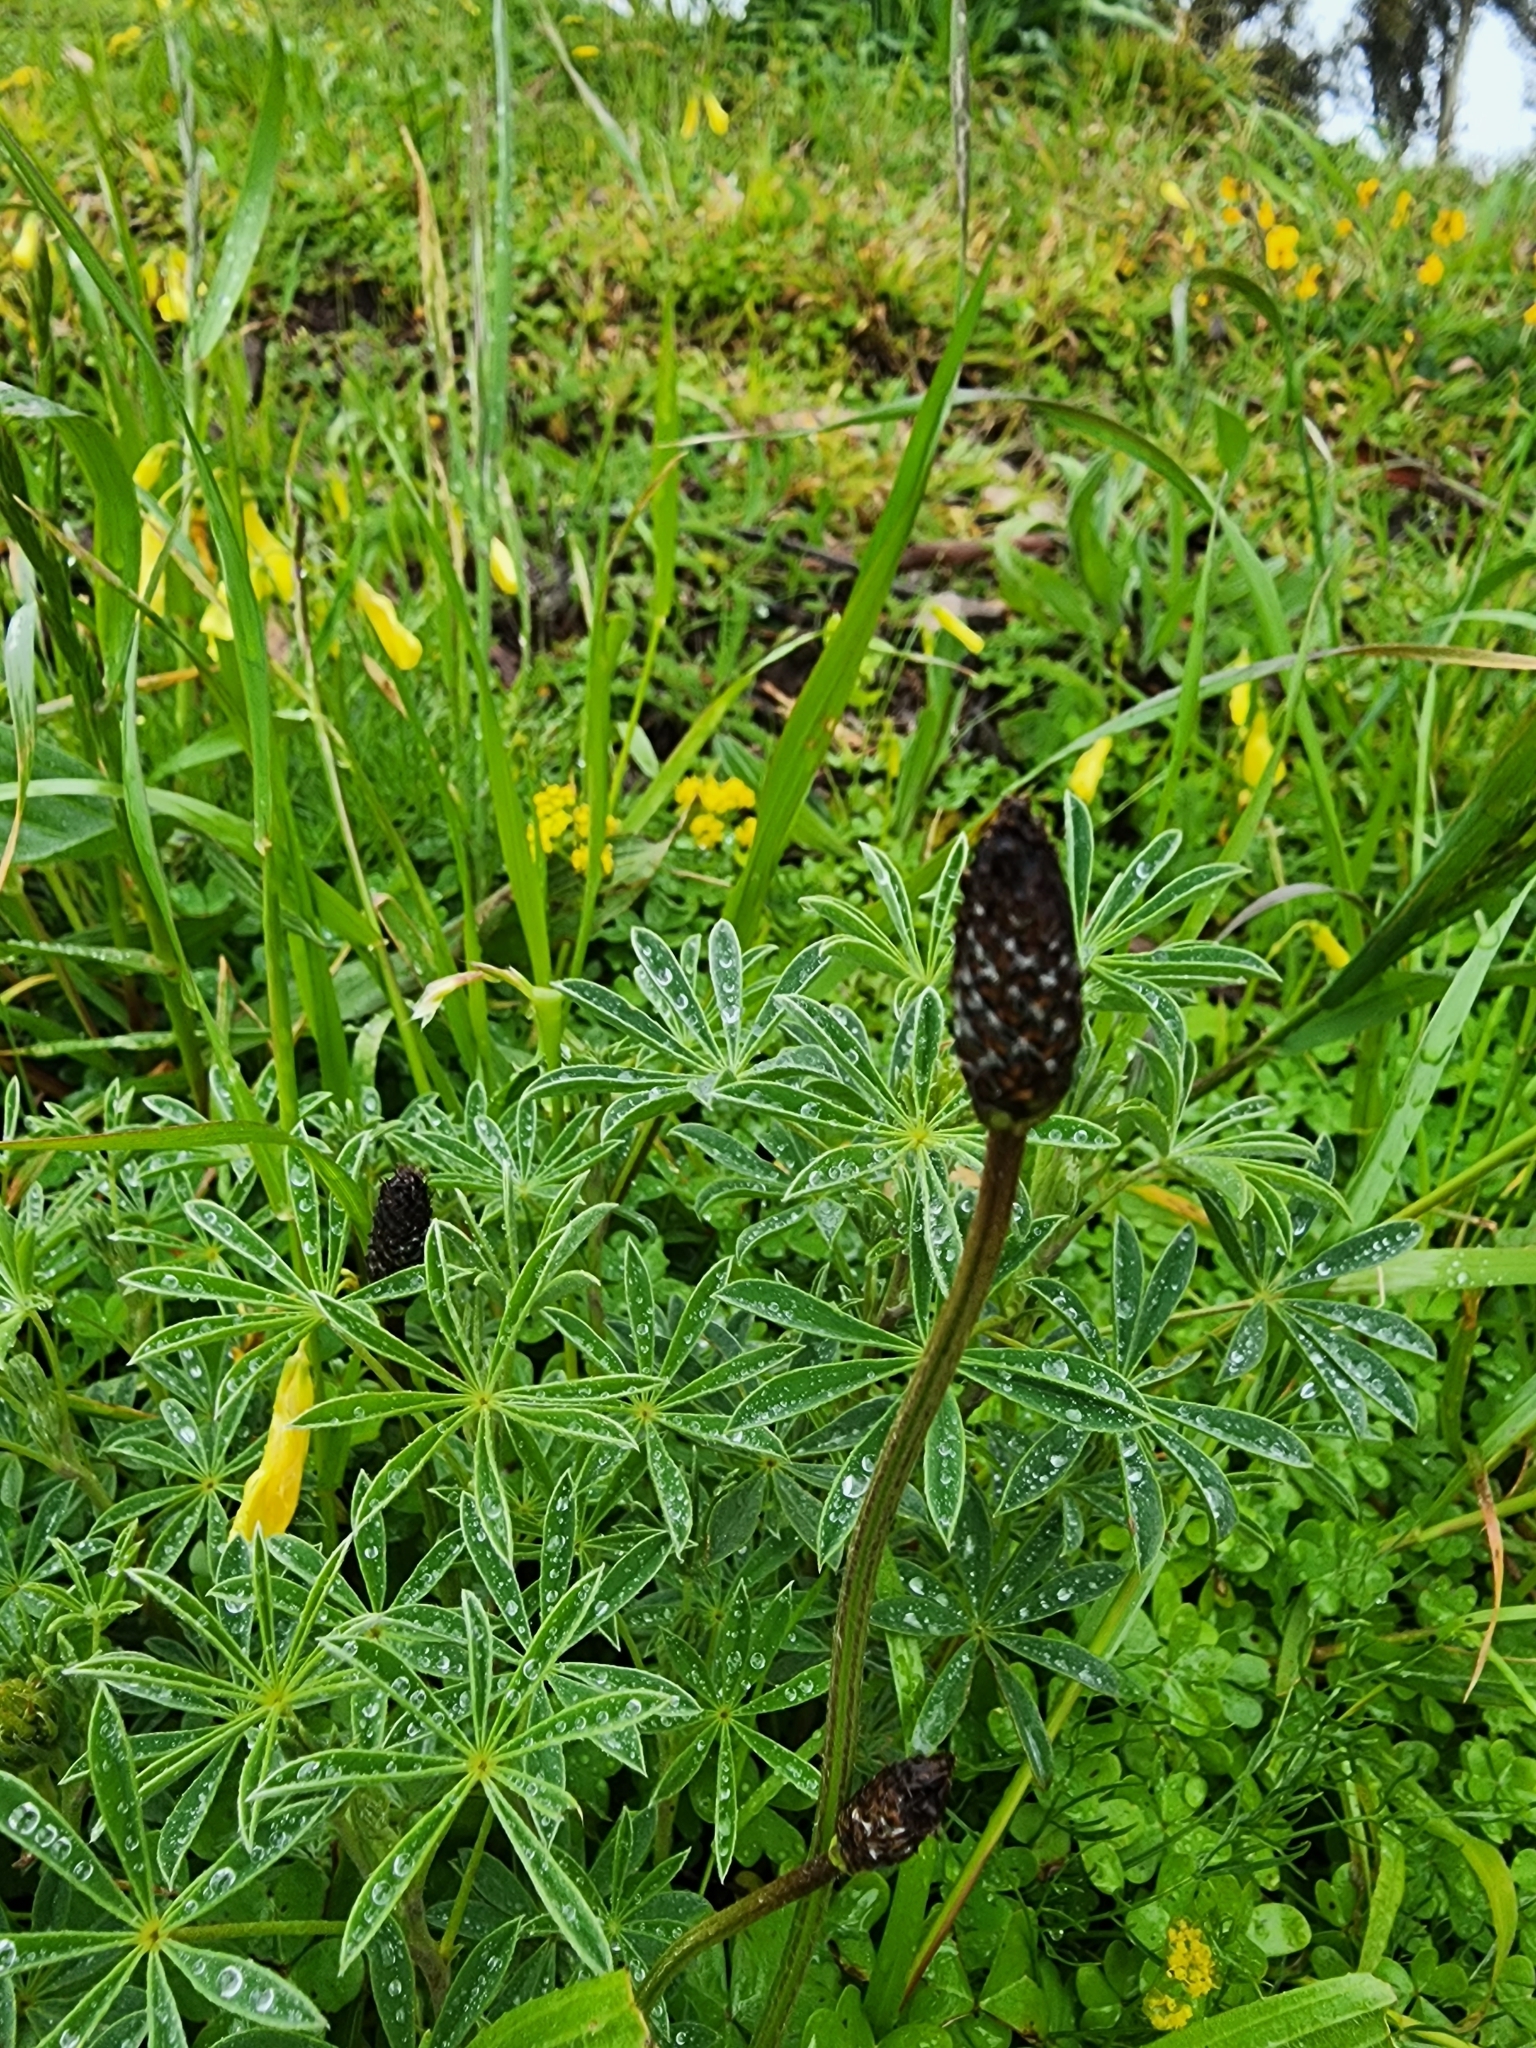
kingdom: Plantae
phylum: Tracheophyta
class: Magnoliopsida
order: Lamiales
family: Plantaginaceae
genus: Plantago
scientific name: Plantago lanceolata
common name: Ribwort plantain
